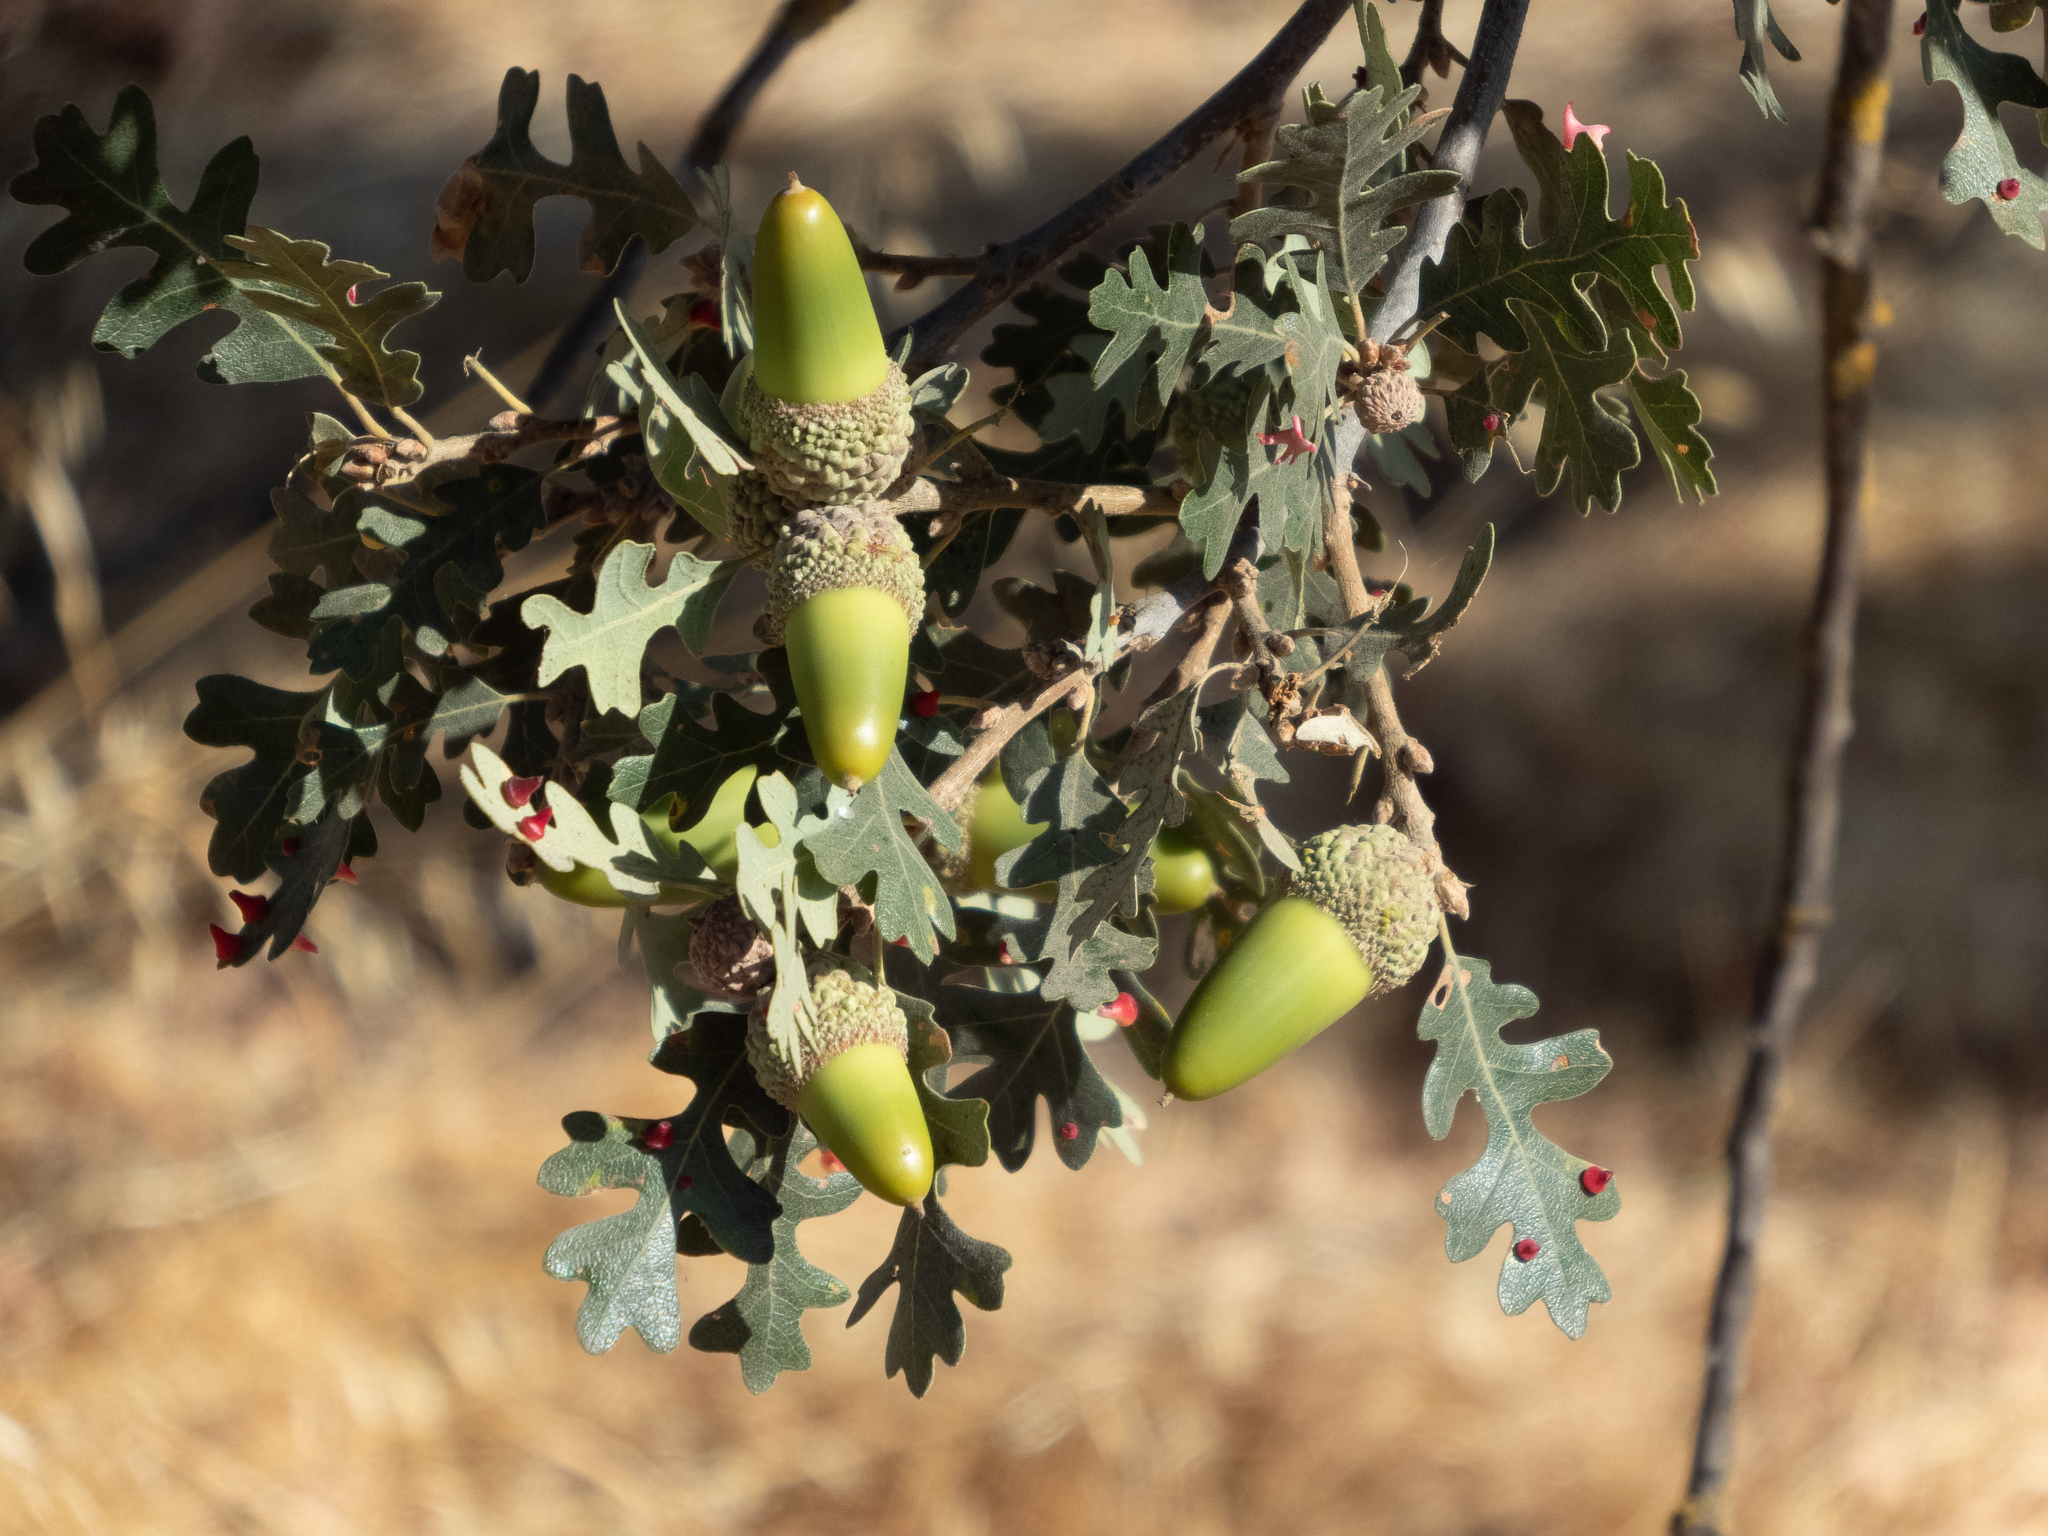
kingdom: Plantae
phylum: Tracheophyta
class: Magnoliopsida
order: Fagales
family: Fagaceae
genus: Quercus
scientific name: Quercus lobata
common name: Valley oak
